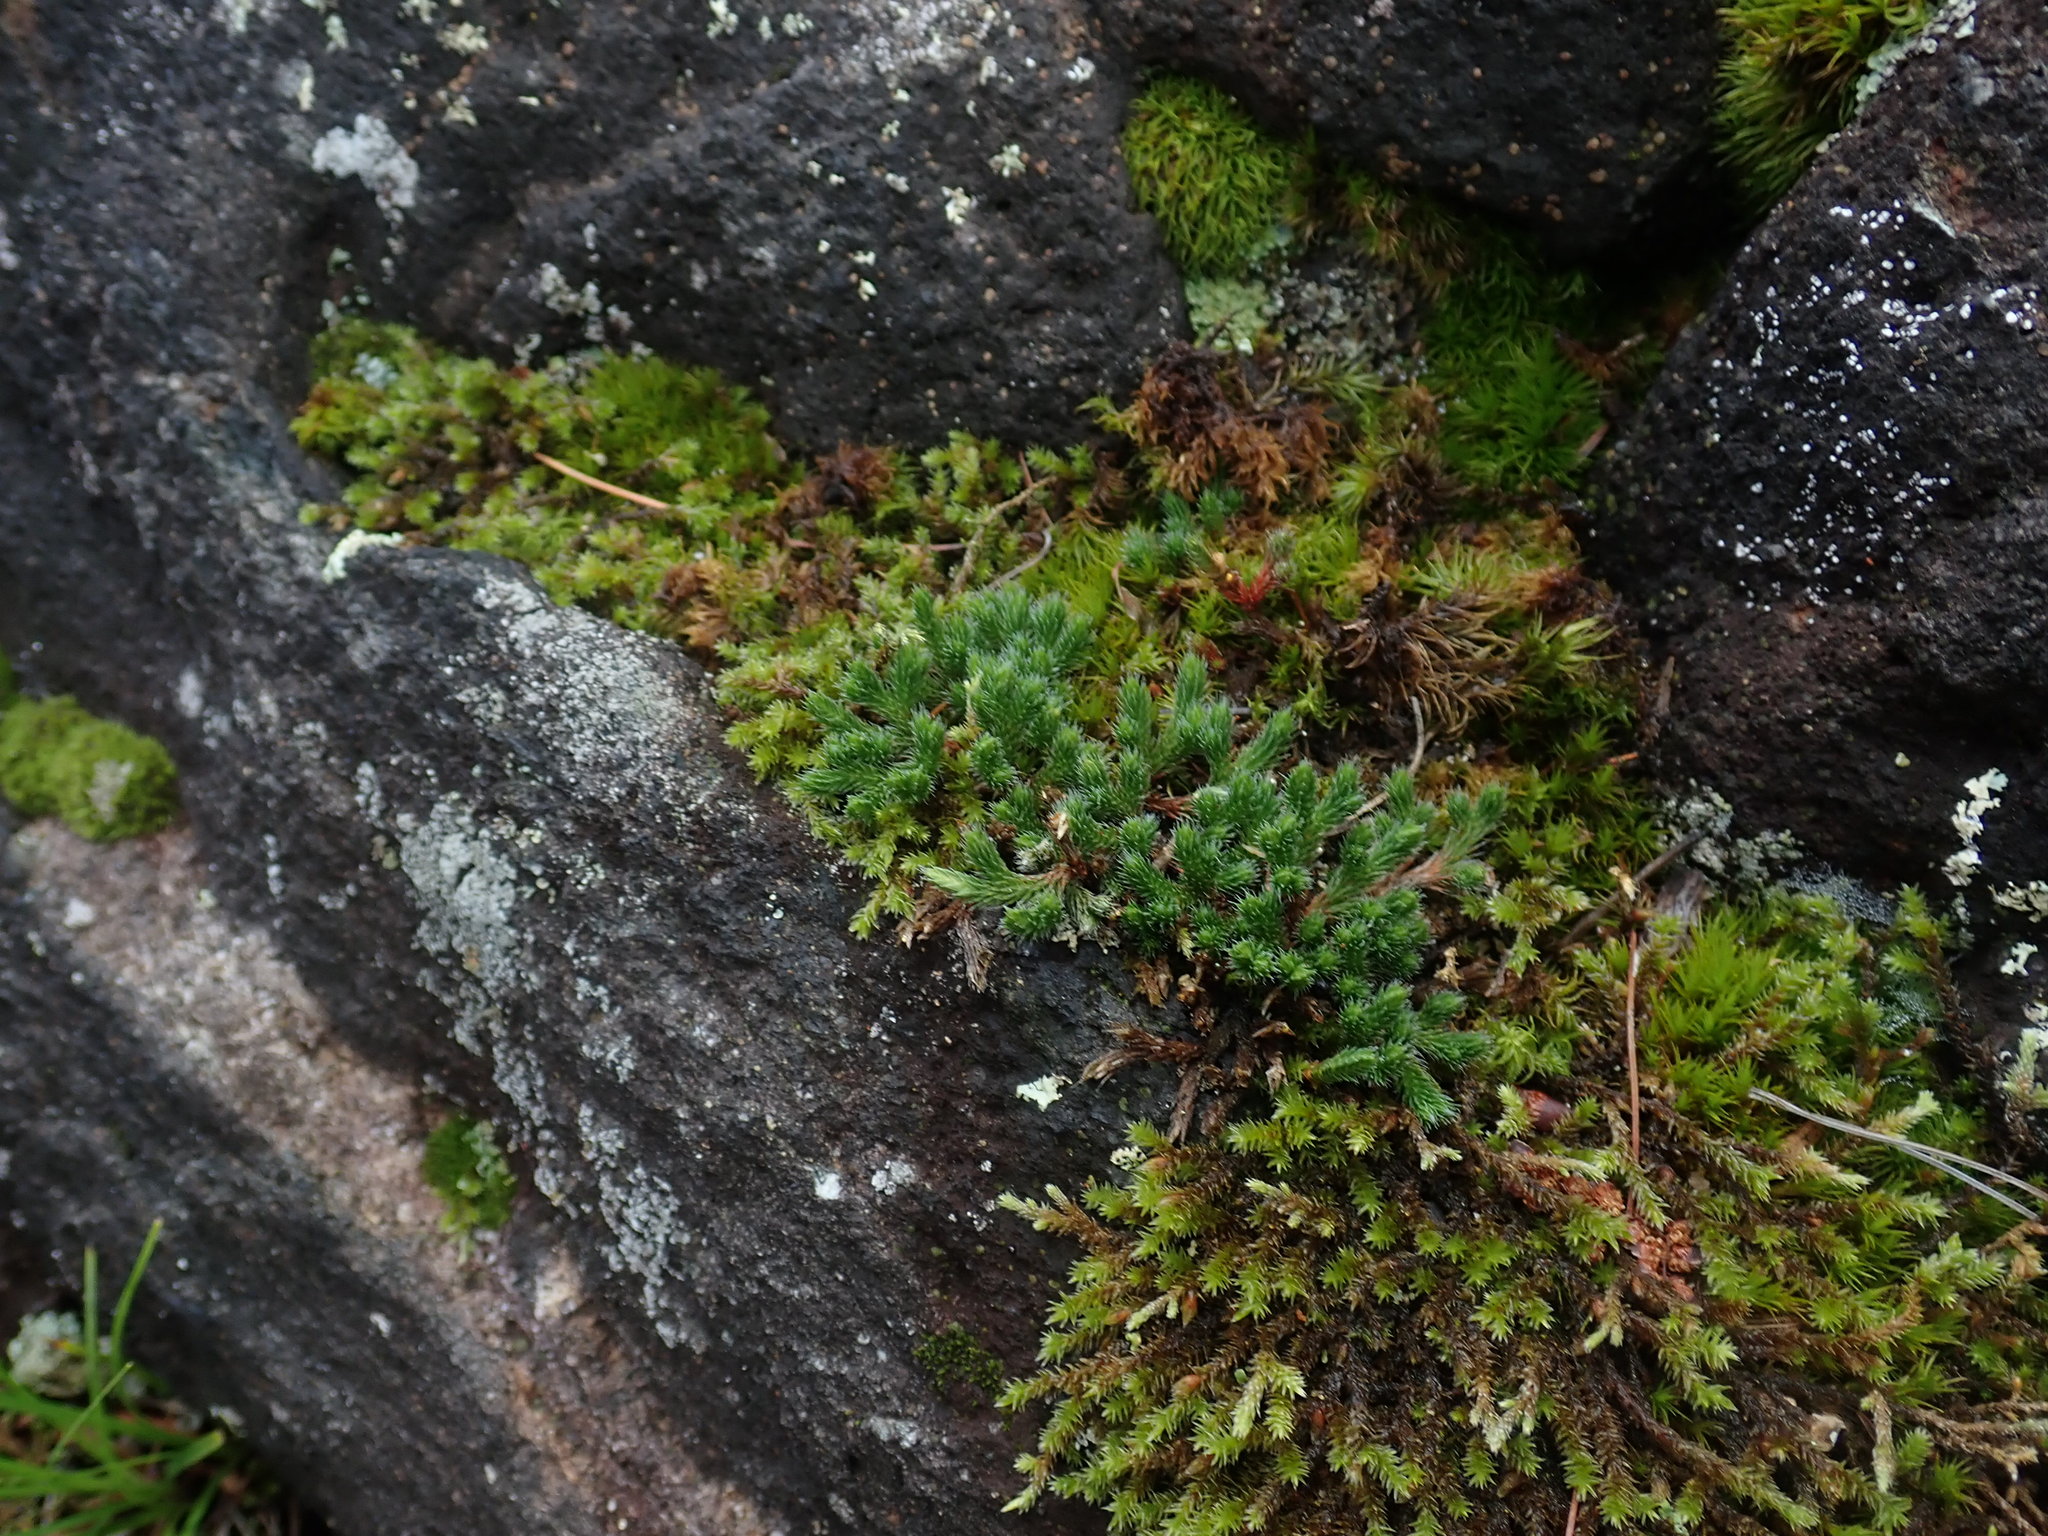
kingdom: Plantae
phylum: Tracheophyta
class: Lycopodiopsida
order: Selaginellales
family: Selaginellaceae
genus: Selaginella
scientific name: Selaginella rupestris
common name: Dwarf spikemoss
